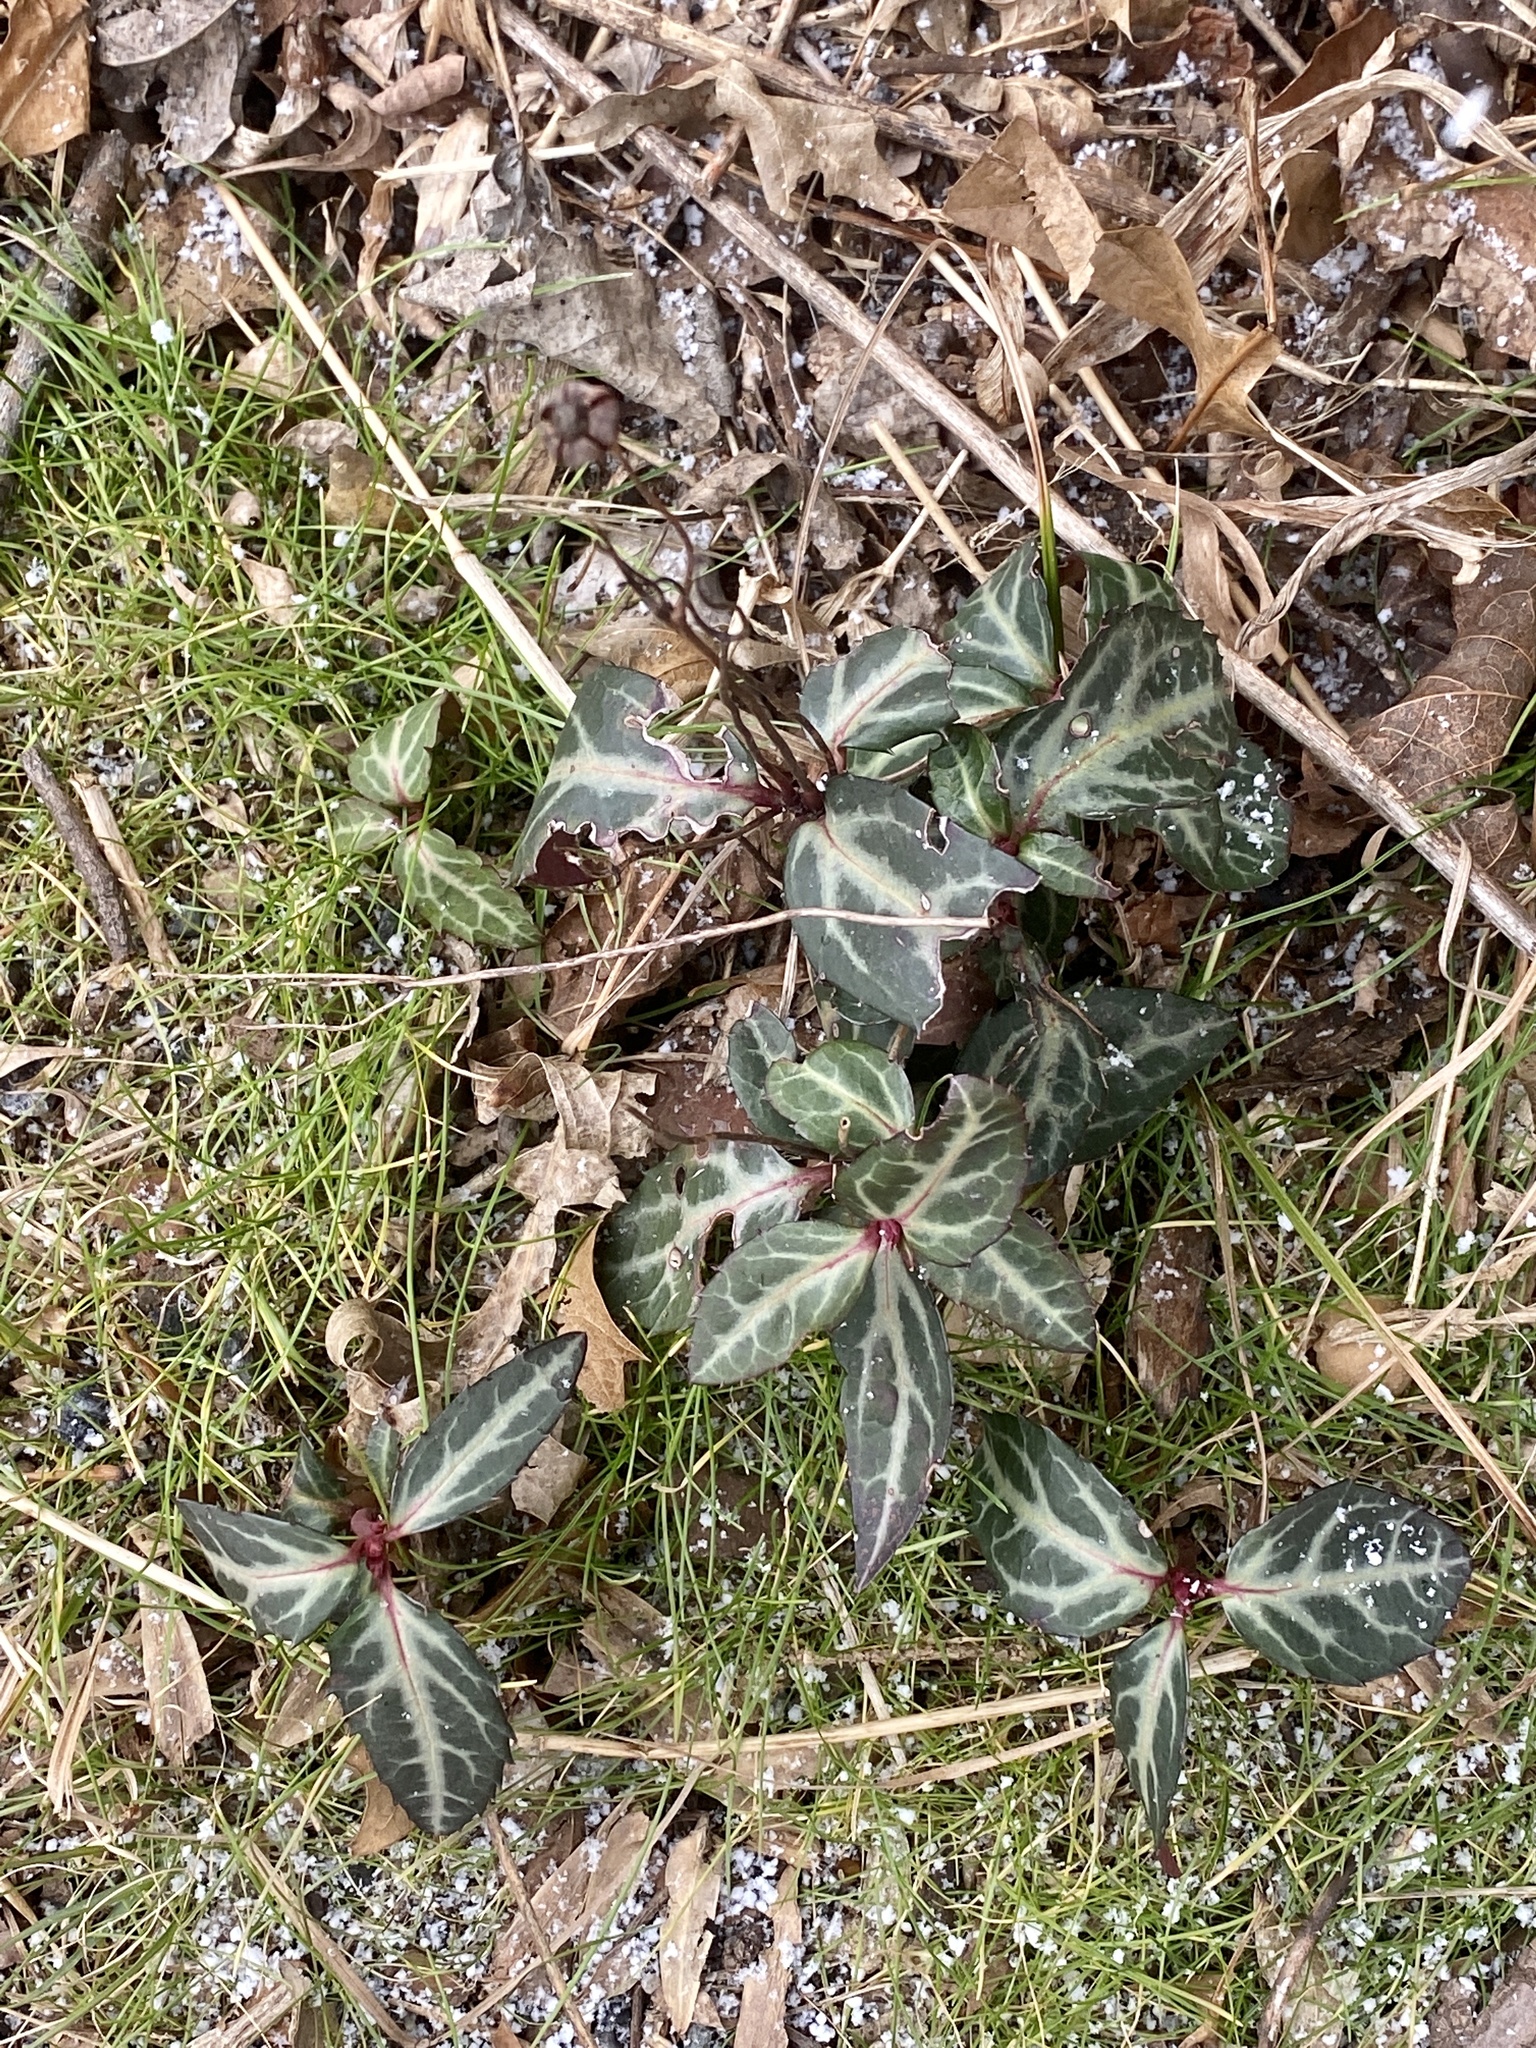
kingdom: Plantae
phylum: Tracheophyta
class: Magnoliopsida
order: Ericales
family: Ericaceae
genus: Chimaphila
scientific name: Chimaphila maculata
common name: Spotted pipsissewa
